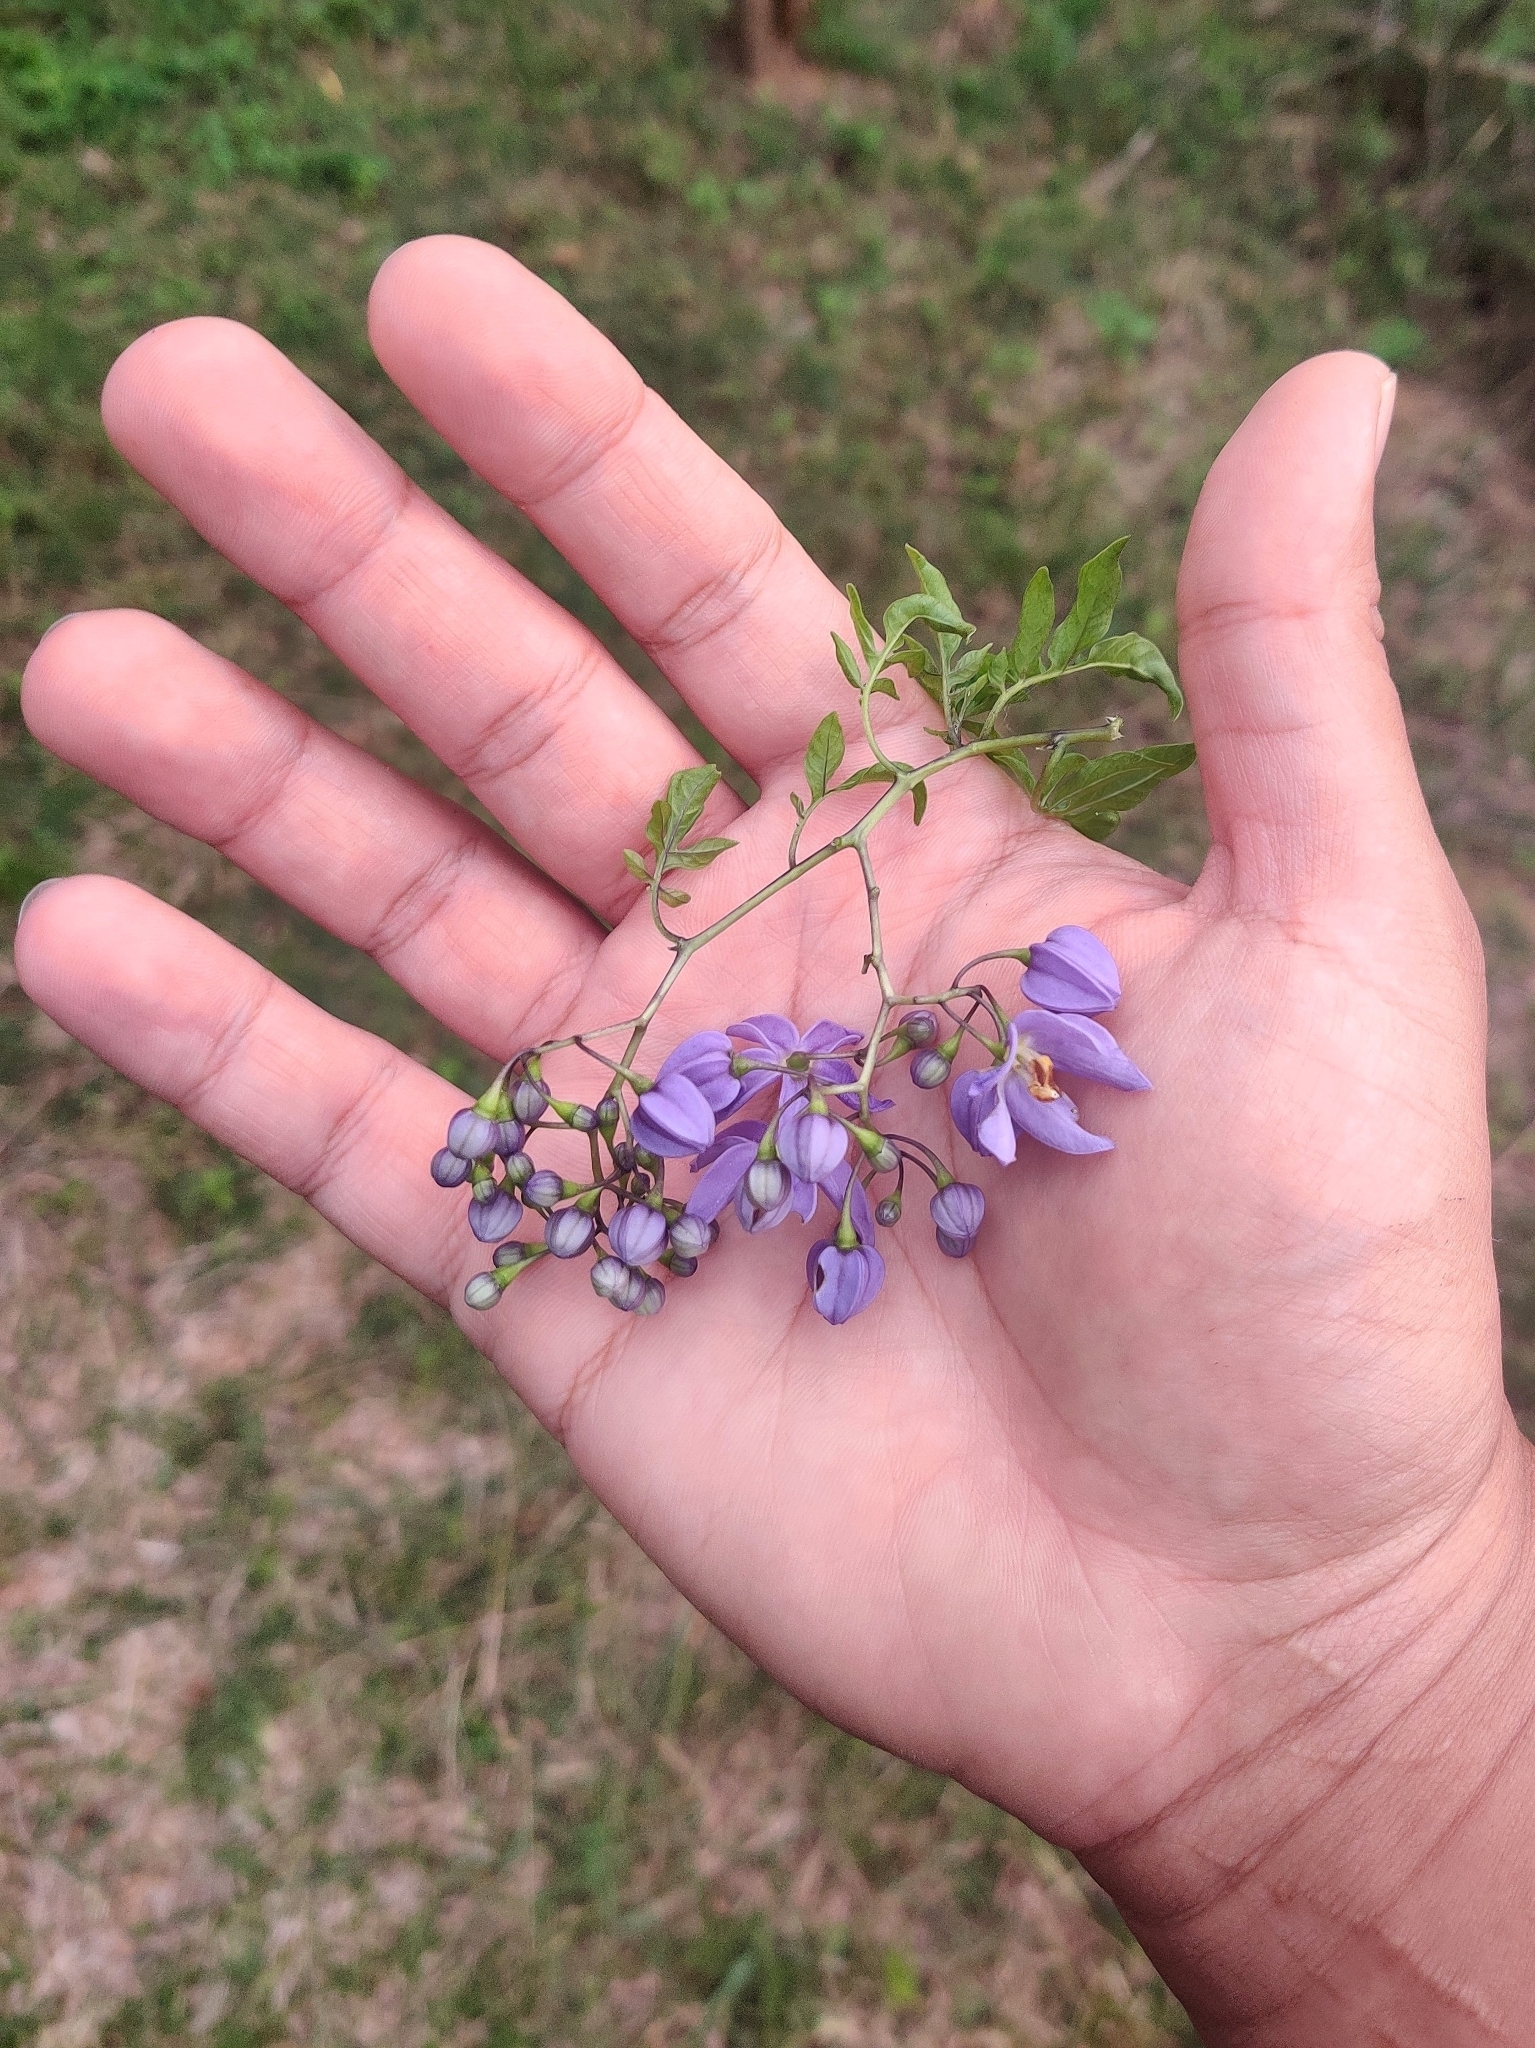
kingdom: Plantae
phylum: Tracheophyta
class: Magnoliopsida
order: Solanales
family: Solanaceae
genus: Solanum
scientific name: Solanum seaforthianum
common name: Brazilian nightshade
